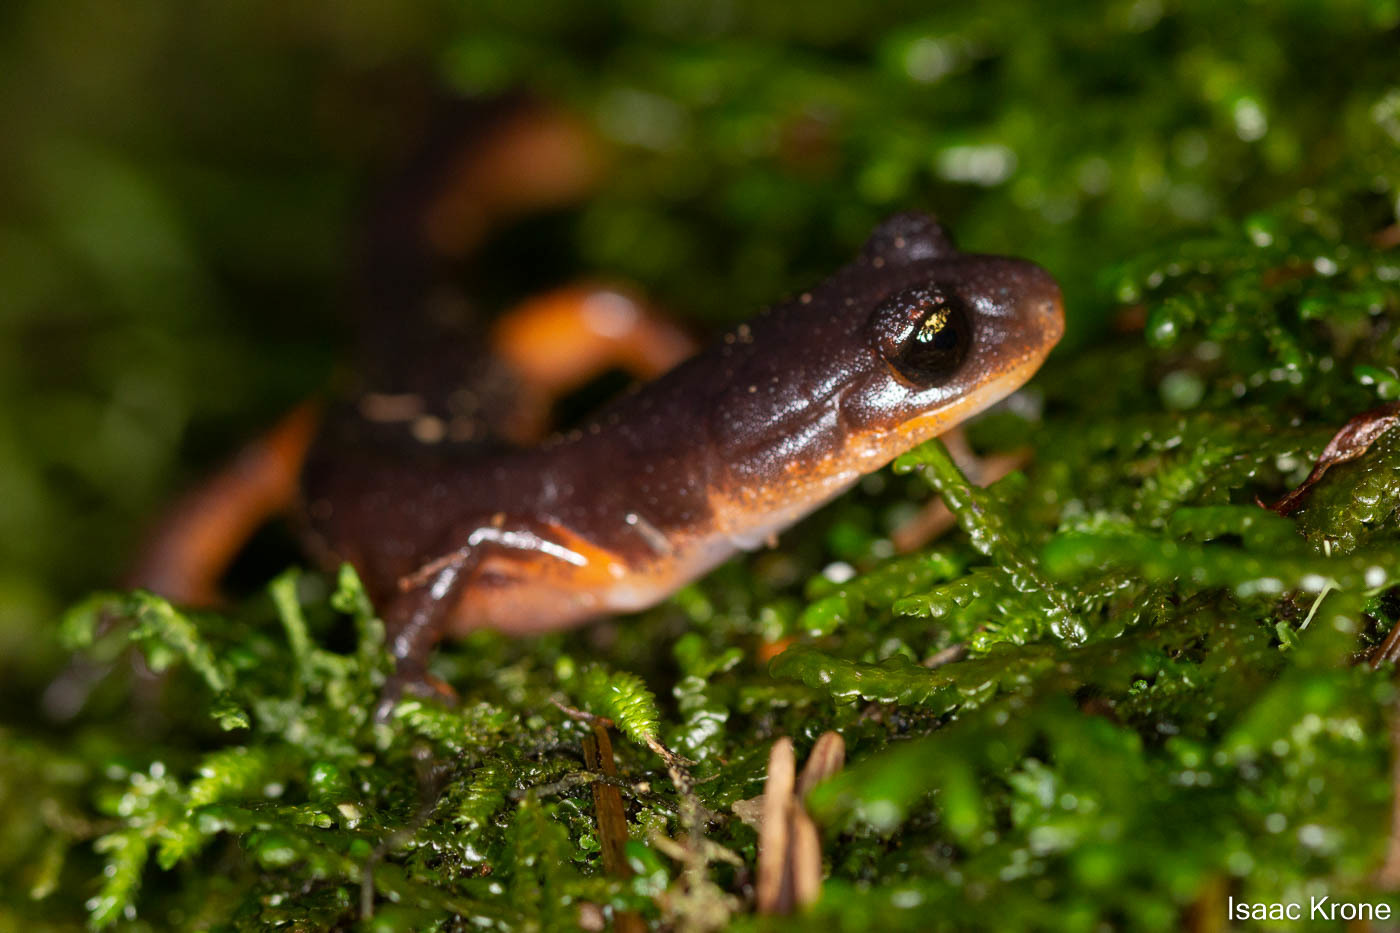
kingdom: Animalia
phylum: Chordata
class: Amphibia
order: Caudata
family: Plethodontidae
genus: Ensatina
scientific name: Ensatina eschscholtzii
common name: Ensatina
